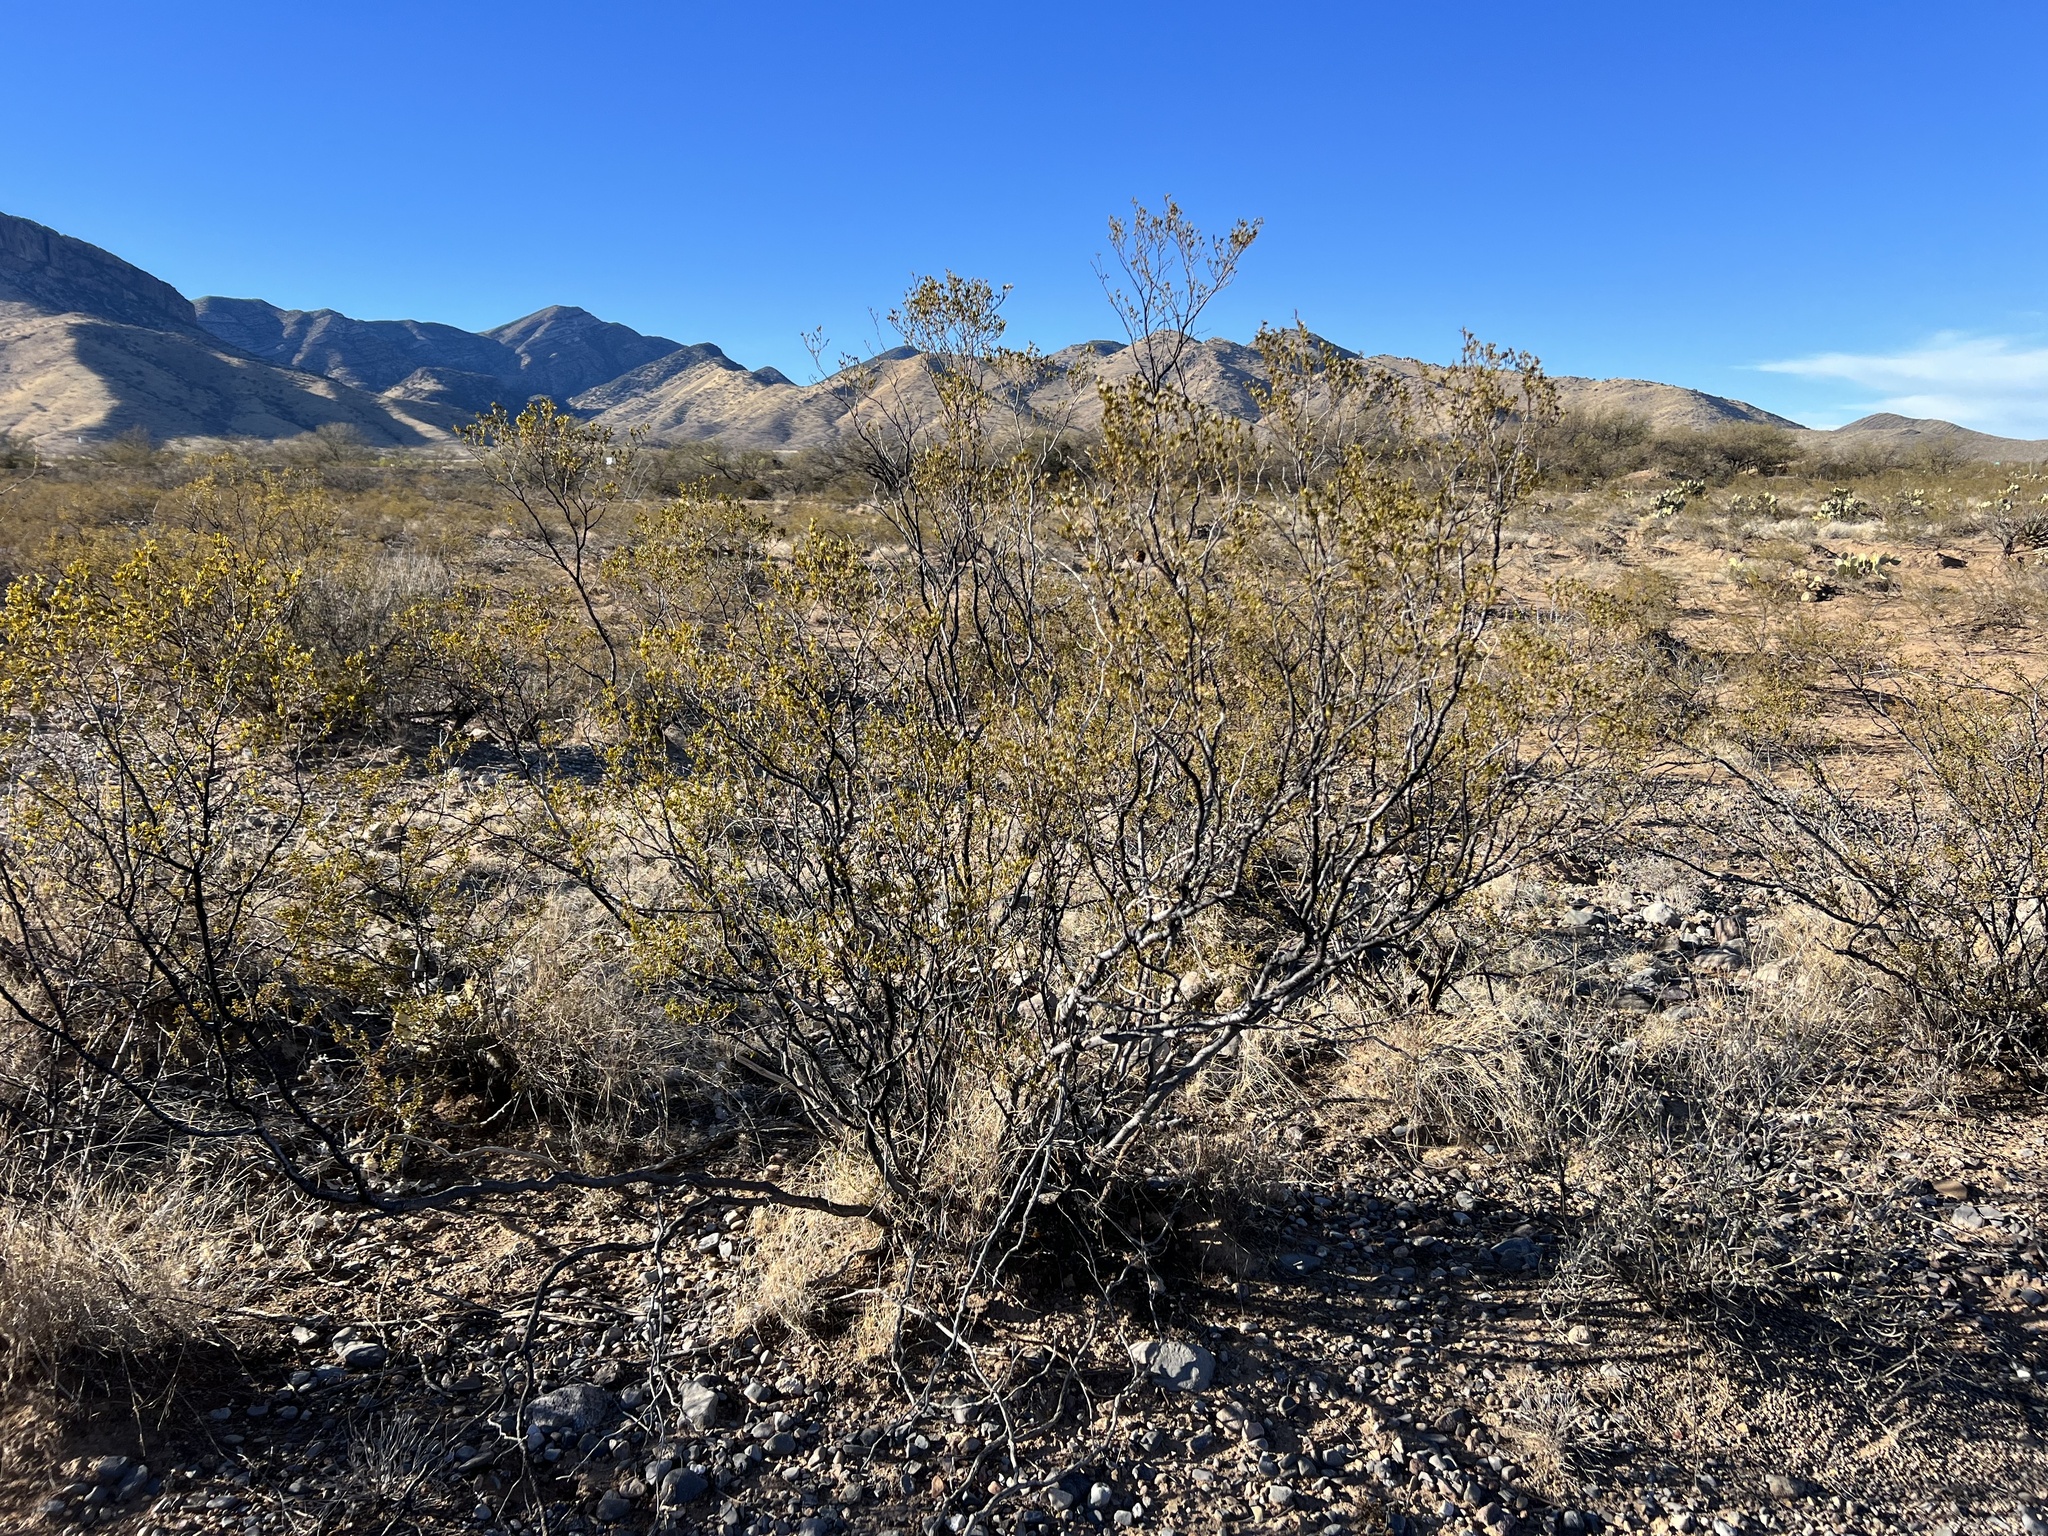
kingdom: Plantae
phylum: Tracheophyta
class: Magnoliopsida
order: Zygophyllales
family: Zygophyllaceae
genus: Larrea
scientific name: Larrea tridentata
